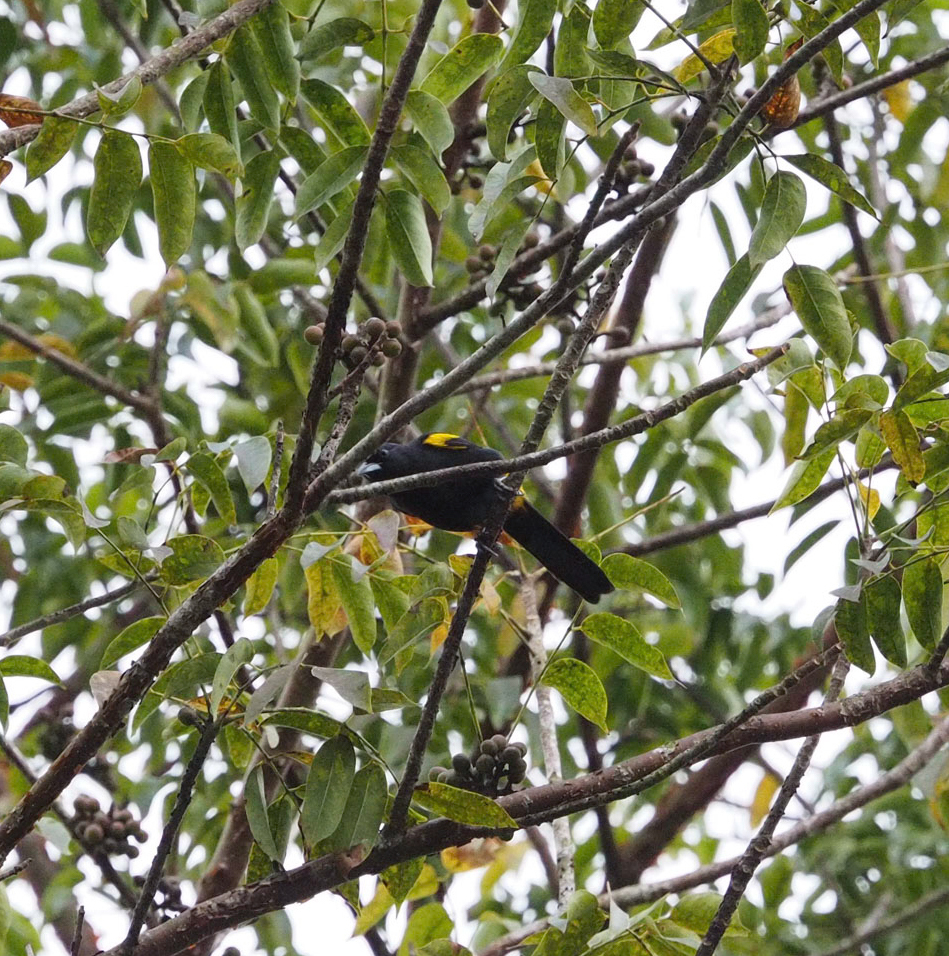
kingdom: Animalia
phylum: Chordata
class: Aves
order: Passeriformes
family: Icteridae
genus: Icterus
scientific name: Icterus dominicensis
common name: Hispaniolan oriole
